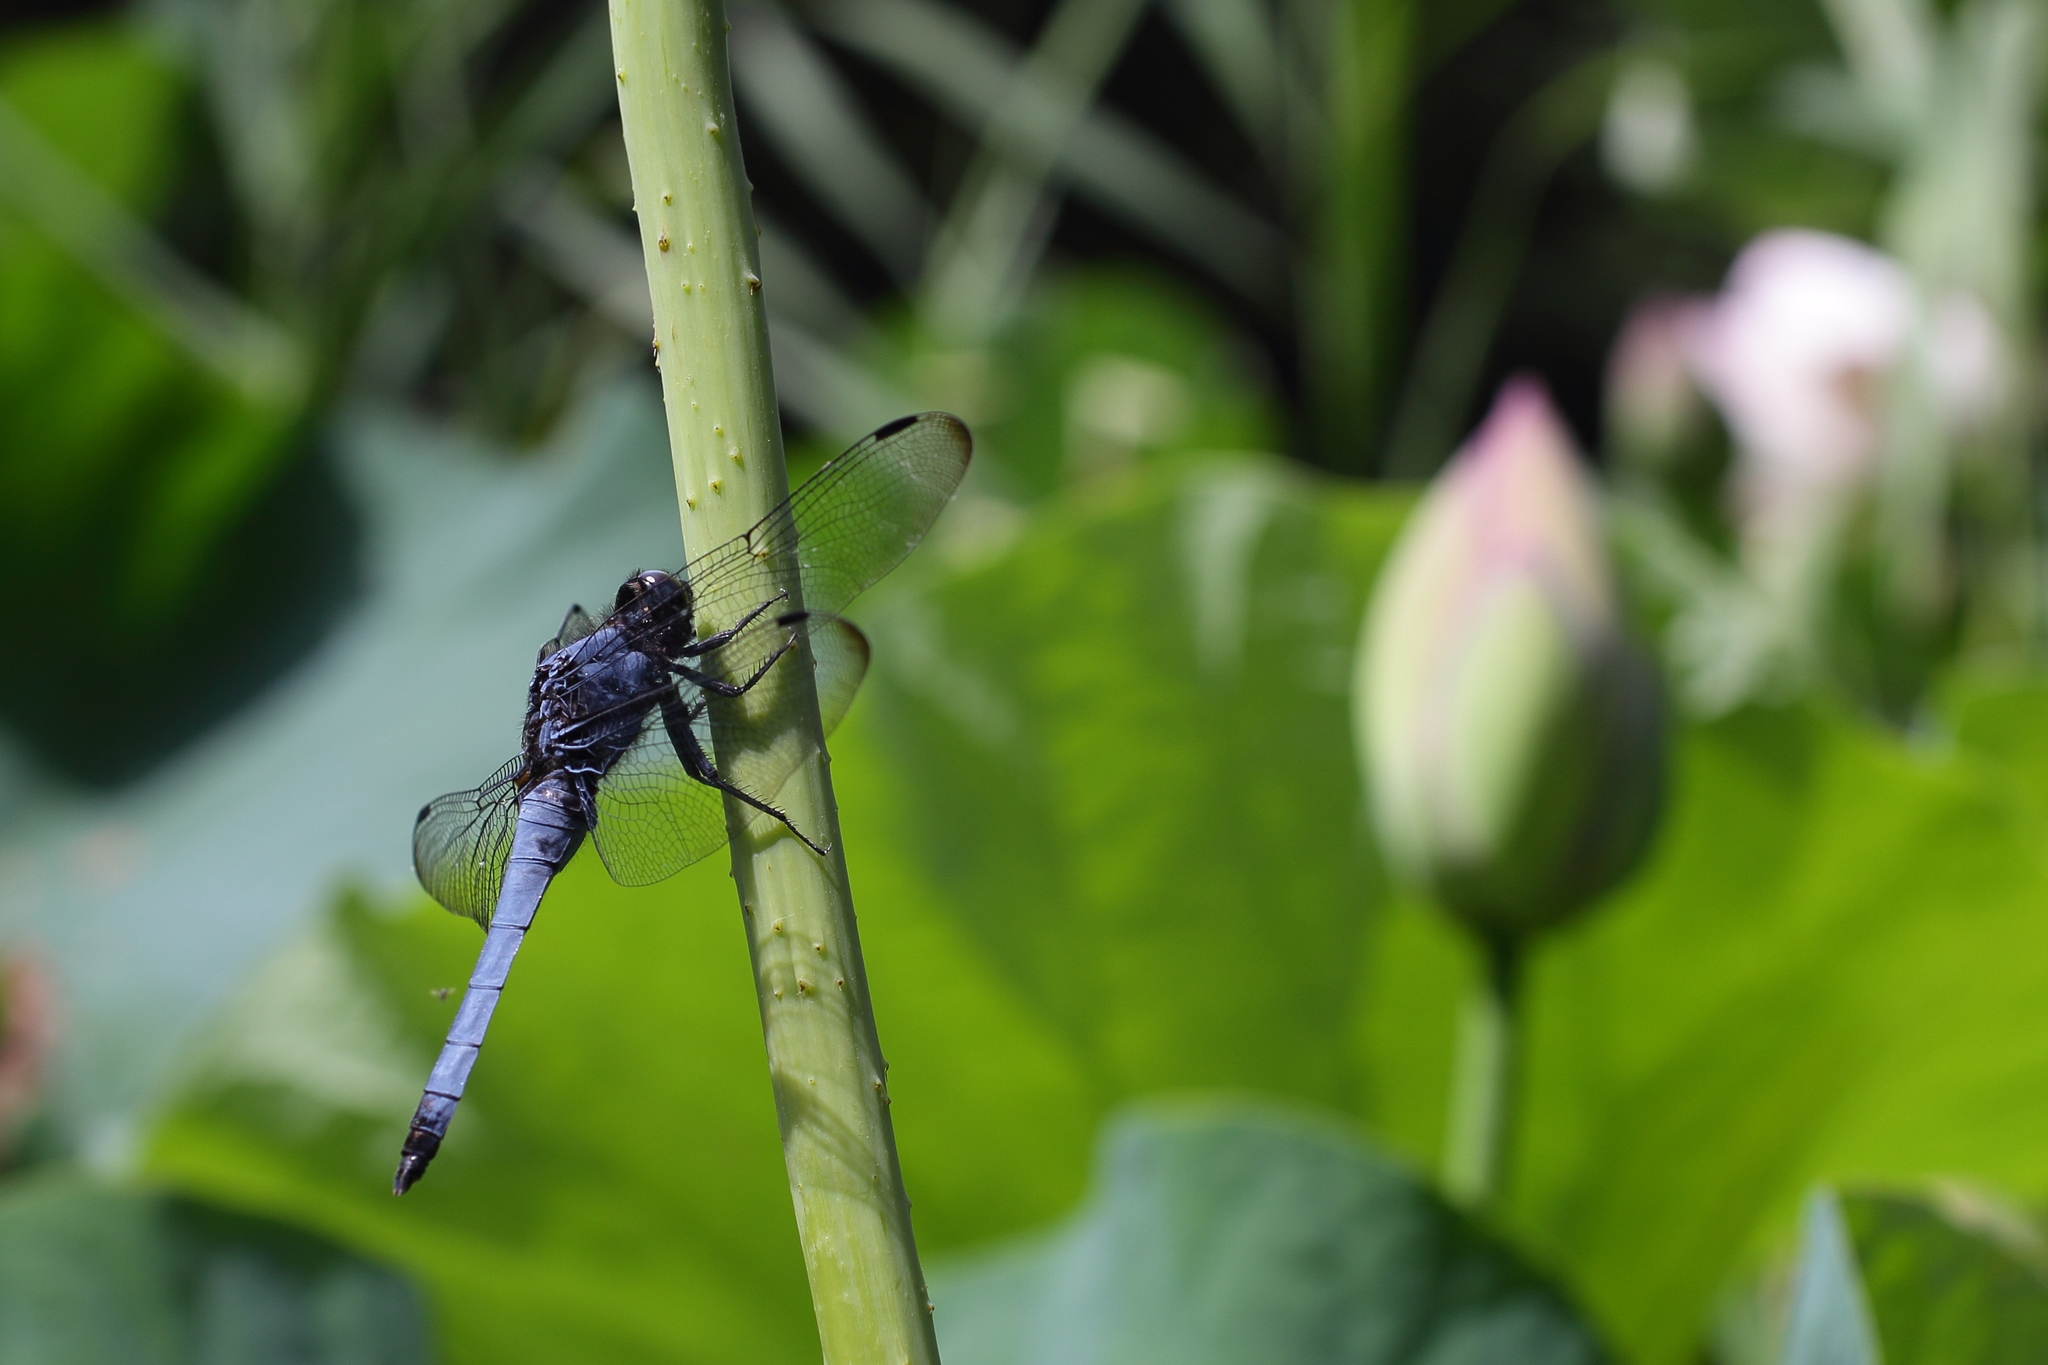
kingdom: Animalia
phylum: Arthropoda
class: Insecta
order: Odonata
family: Libellulidae
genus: Orthetrum
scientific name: Orthetrum melania
